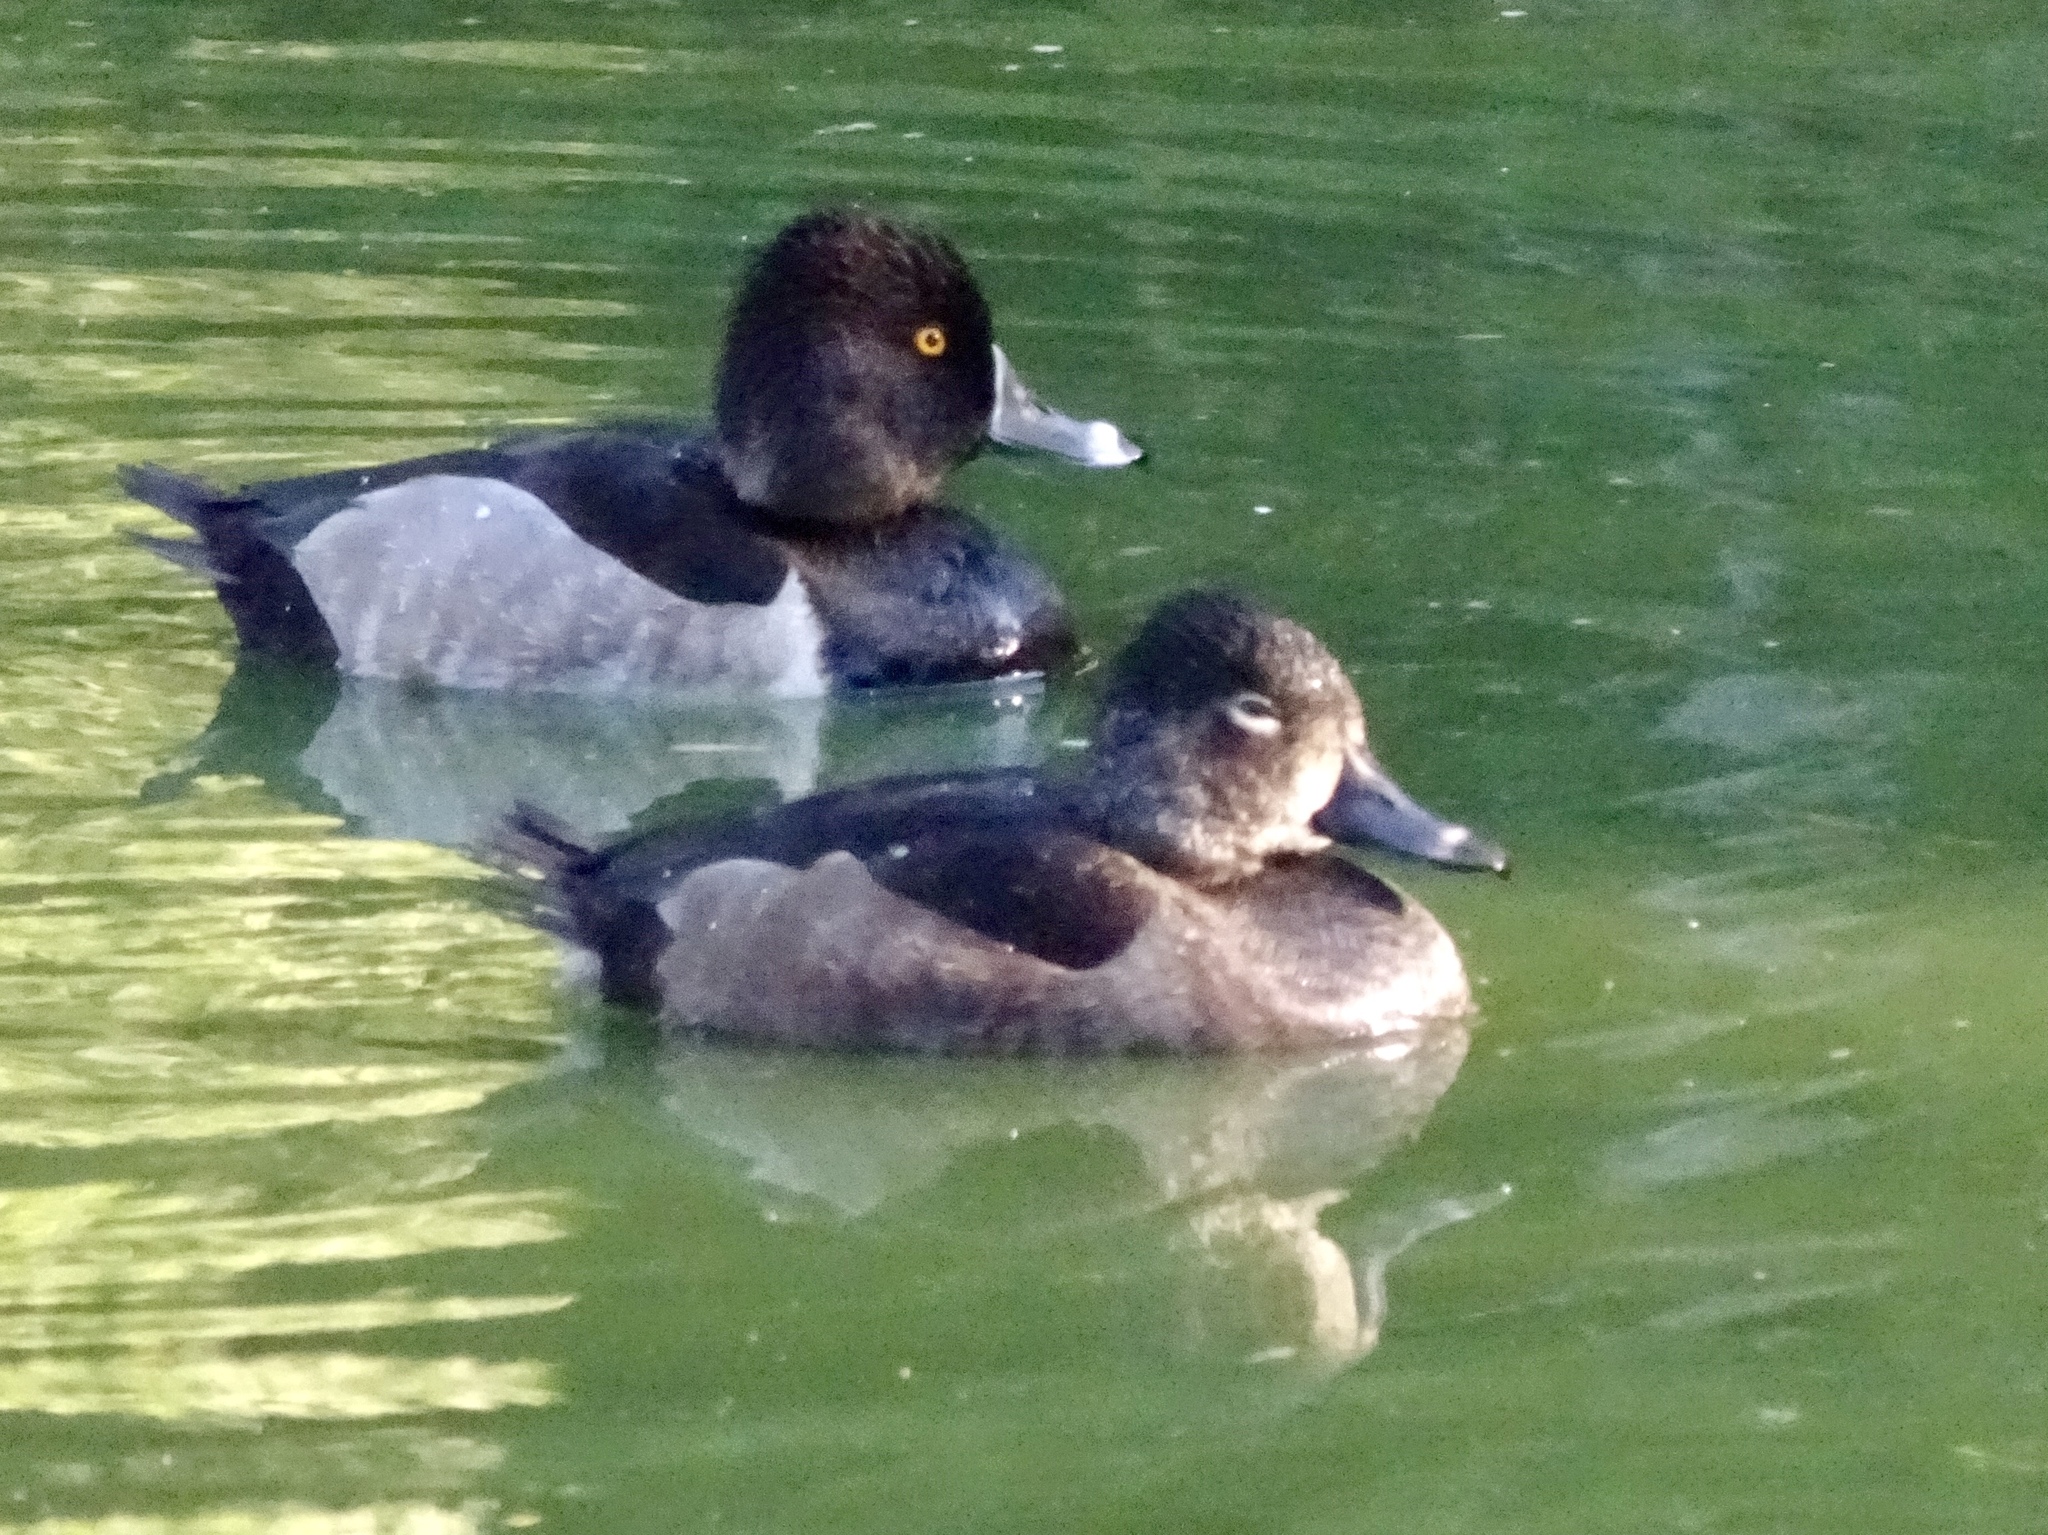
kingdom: Animalia
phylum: Chordata
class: Aves
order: Anseriformes
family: Anatidae
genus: Aythya
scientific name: Aythya collaris
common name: Ring-necked duck
